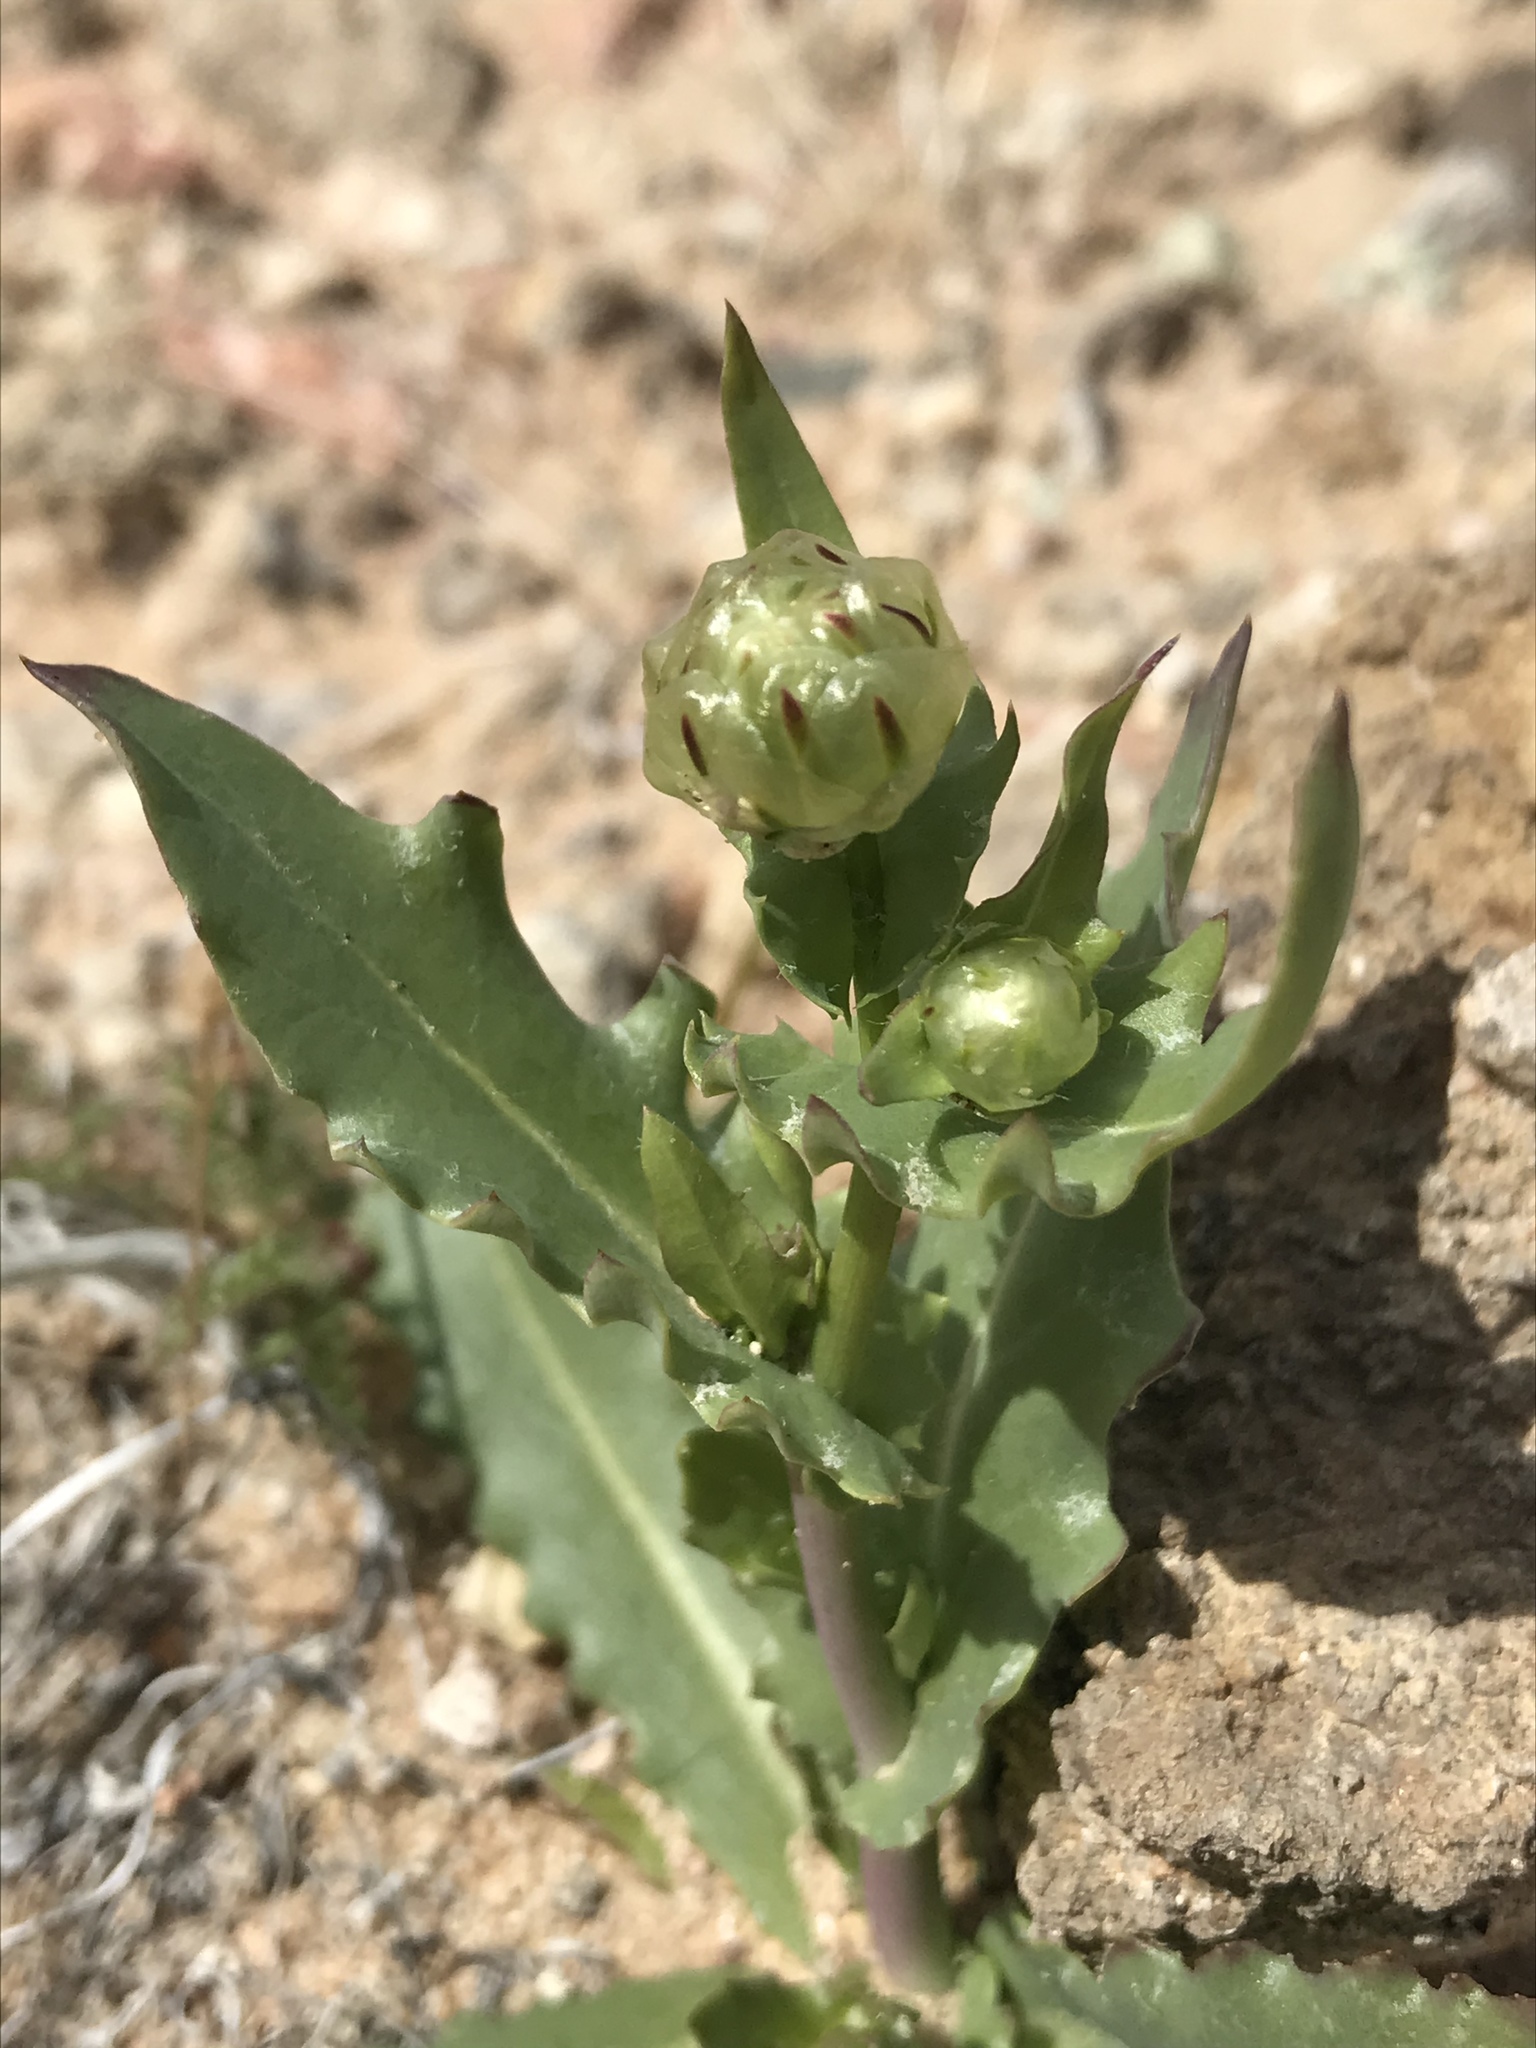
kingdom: Plantae
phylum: Tracheophyta
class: Magnoliopsida
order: Asterales
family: Asteraceae
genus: Malacothrix
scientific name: Malacothrix coulteri
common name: Snake's-head
